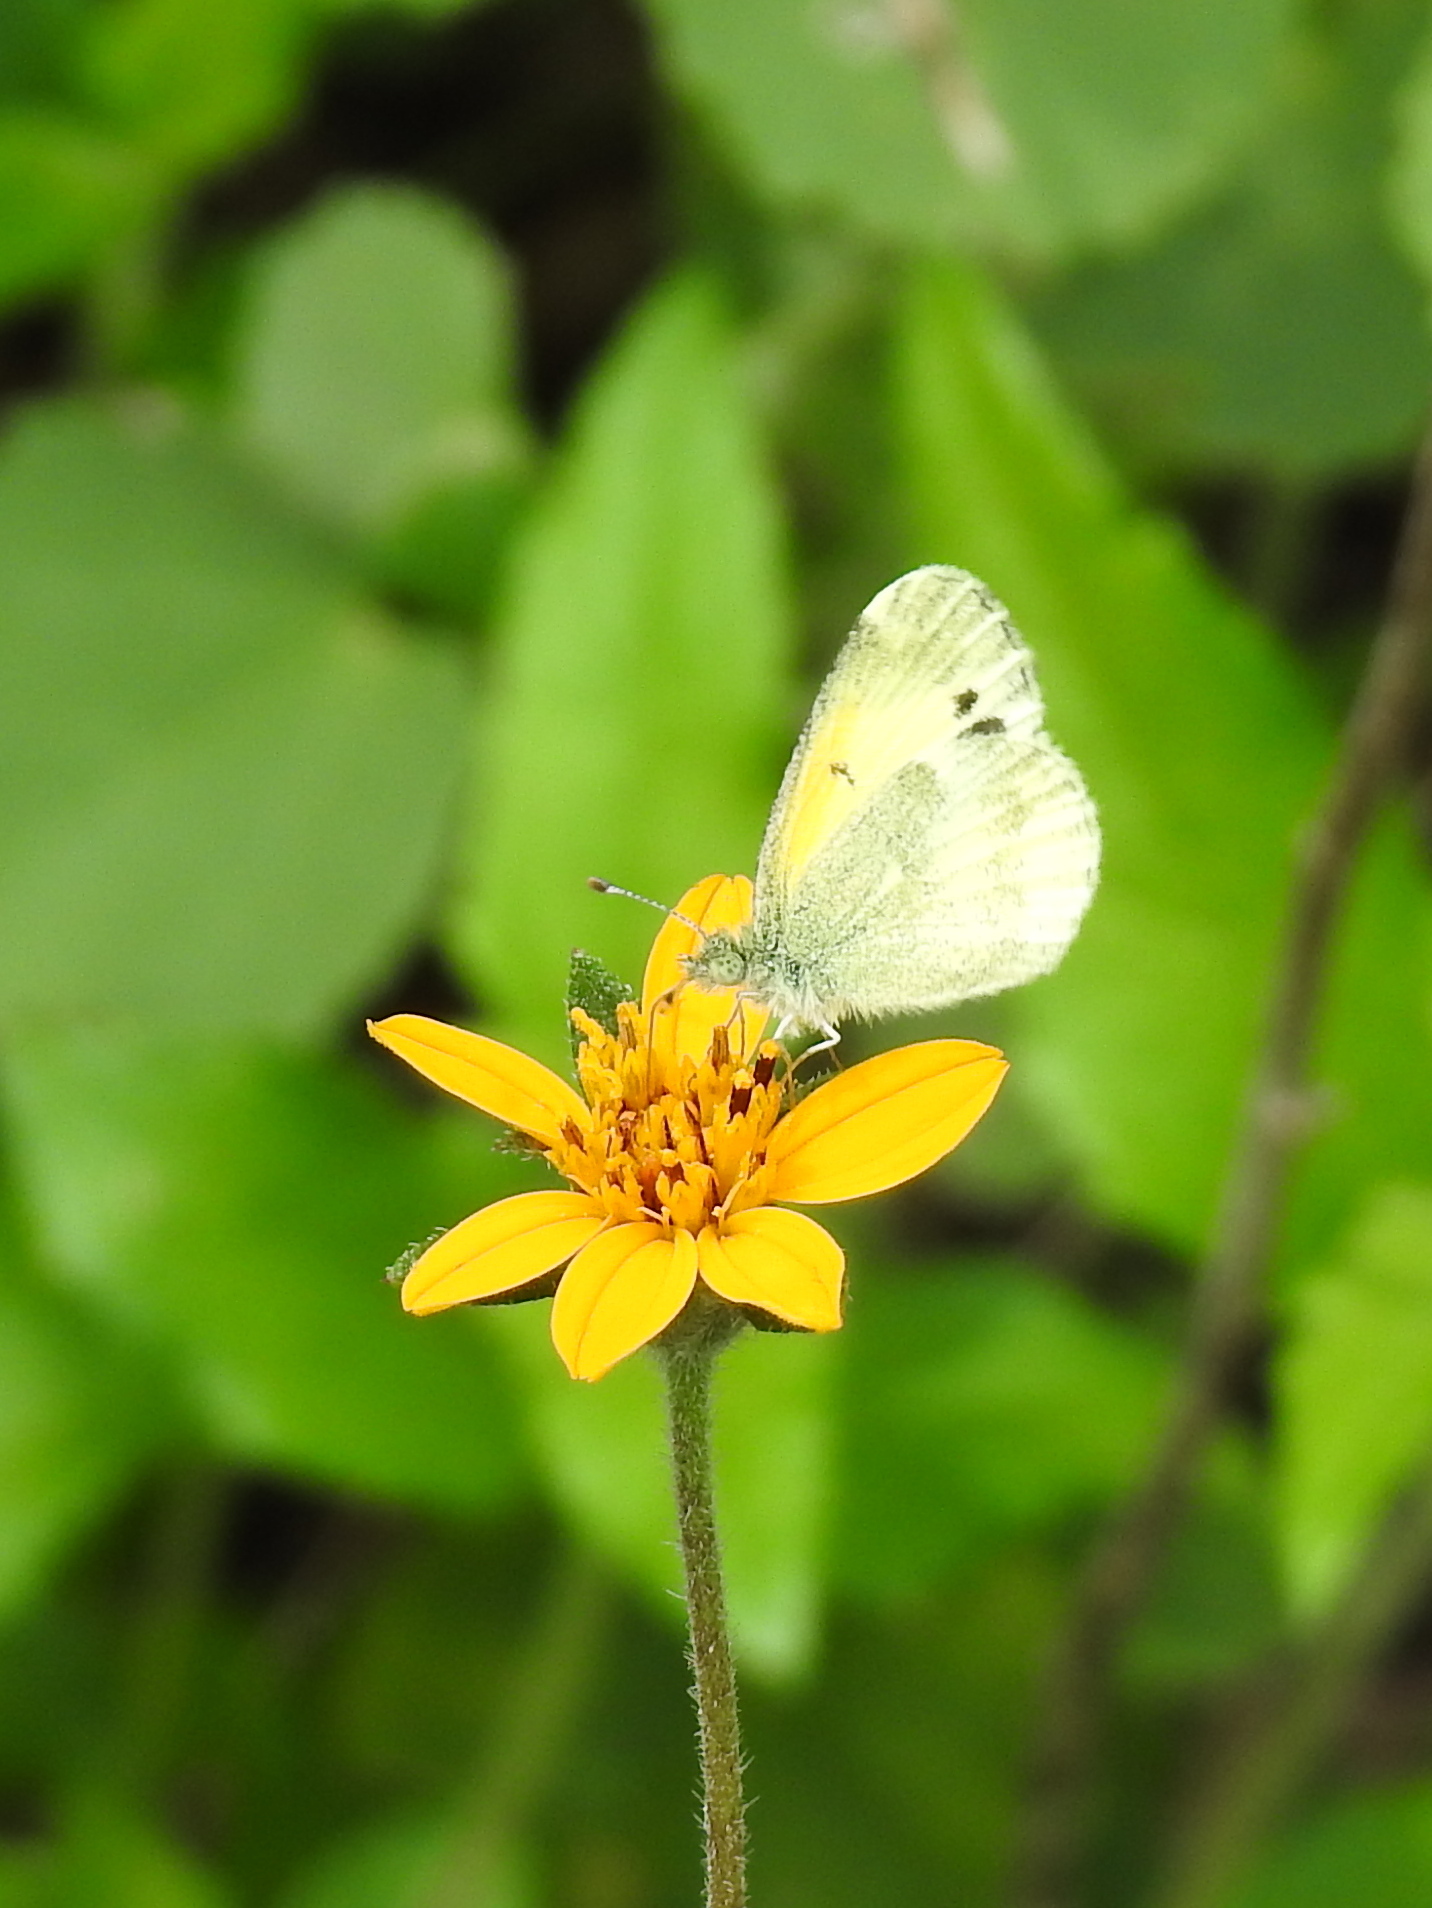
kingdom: Animalia
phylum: Arthropoda
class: Insecta
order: Lepidoptera
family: Pieridae
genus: Nathalis
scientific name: Nathalis iole
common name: Dainty sulphur
